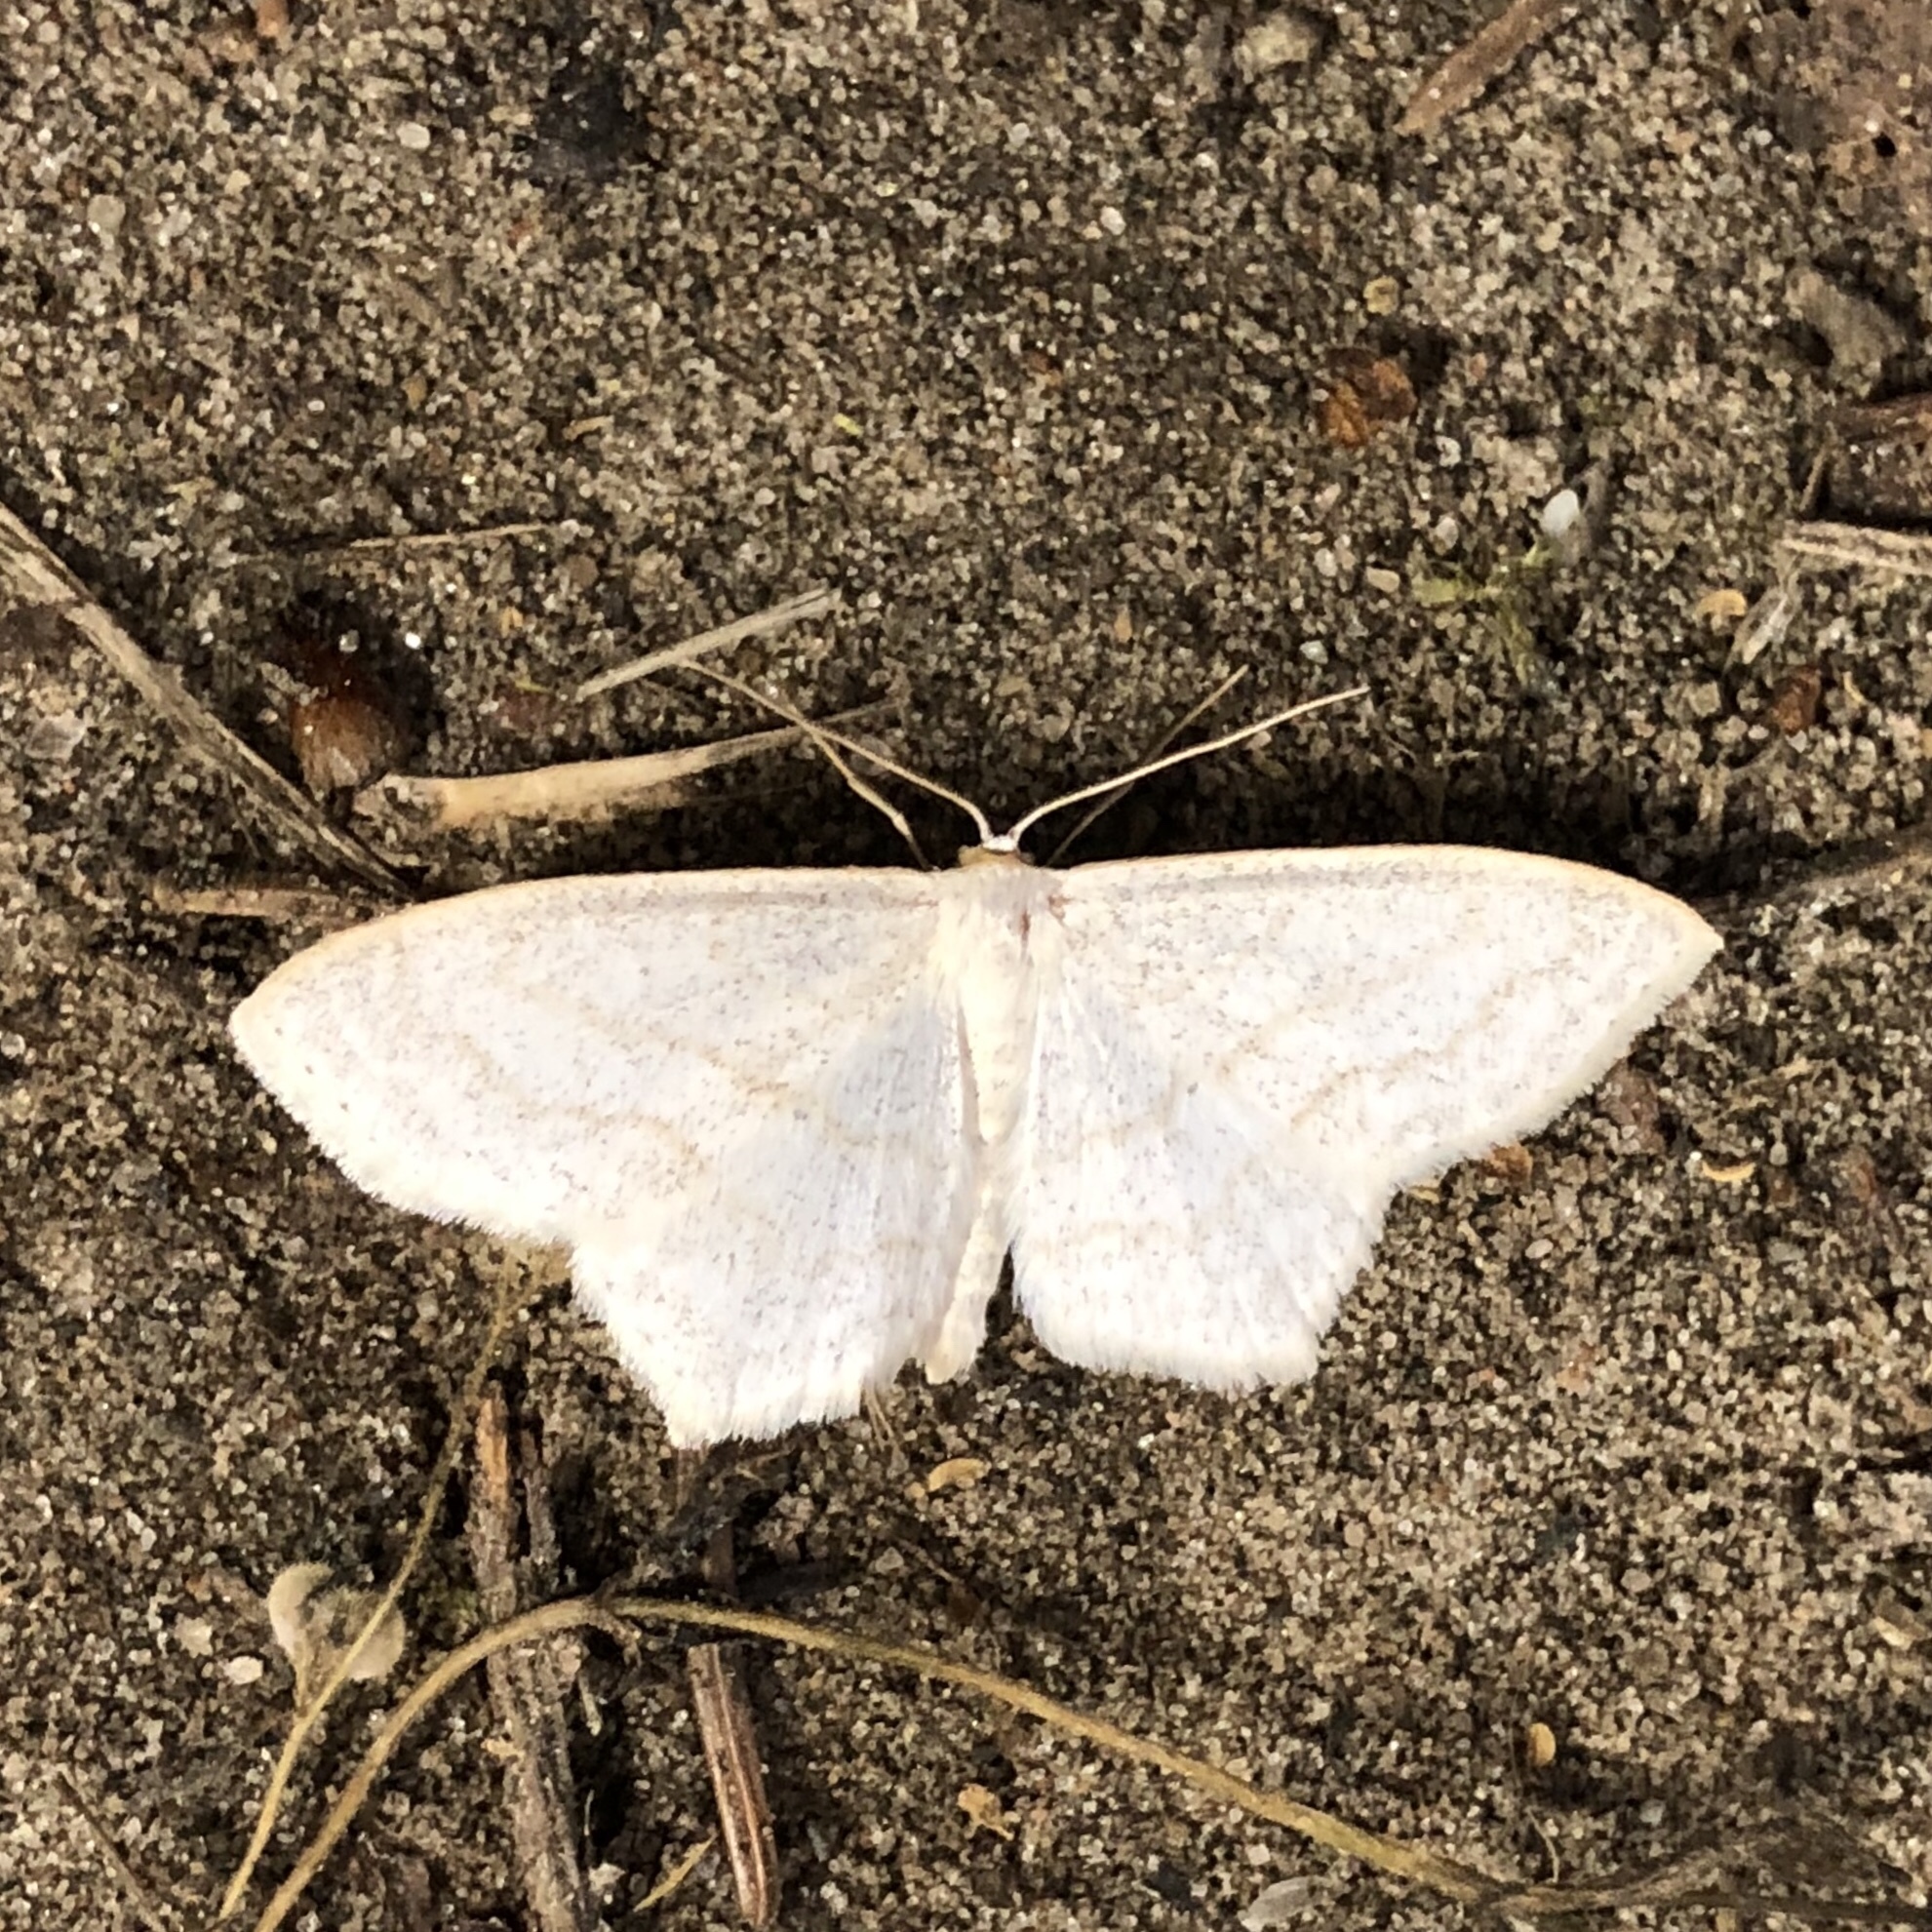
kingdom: Animalia
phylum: Arthropoda
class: Insecta
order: Lepidoptera
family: Geometridae
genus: Scopula
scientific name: Scopula limboundata
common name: Large lace border
